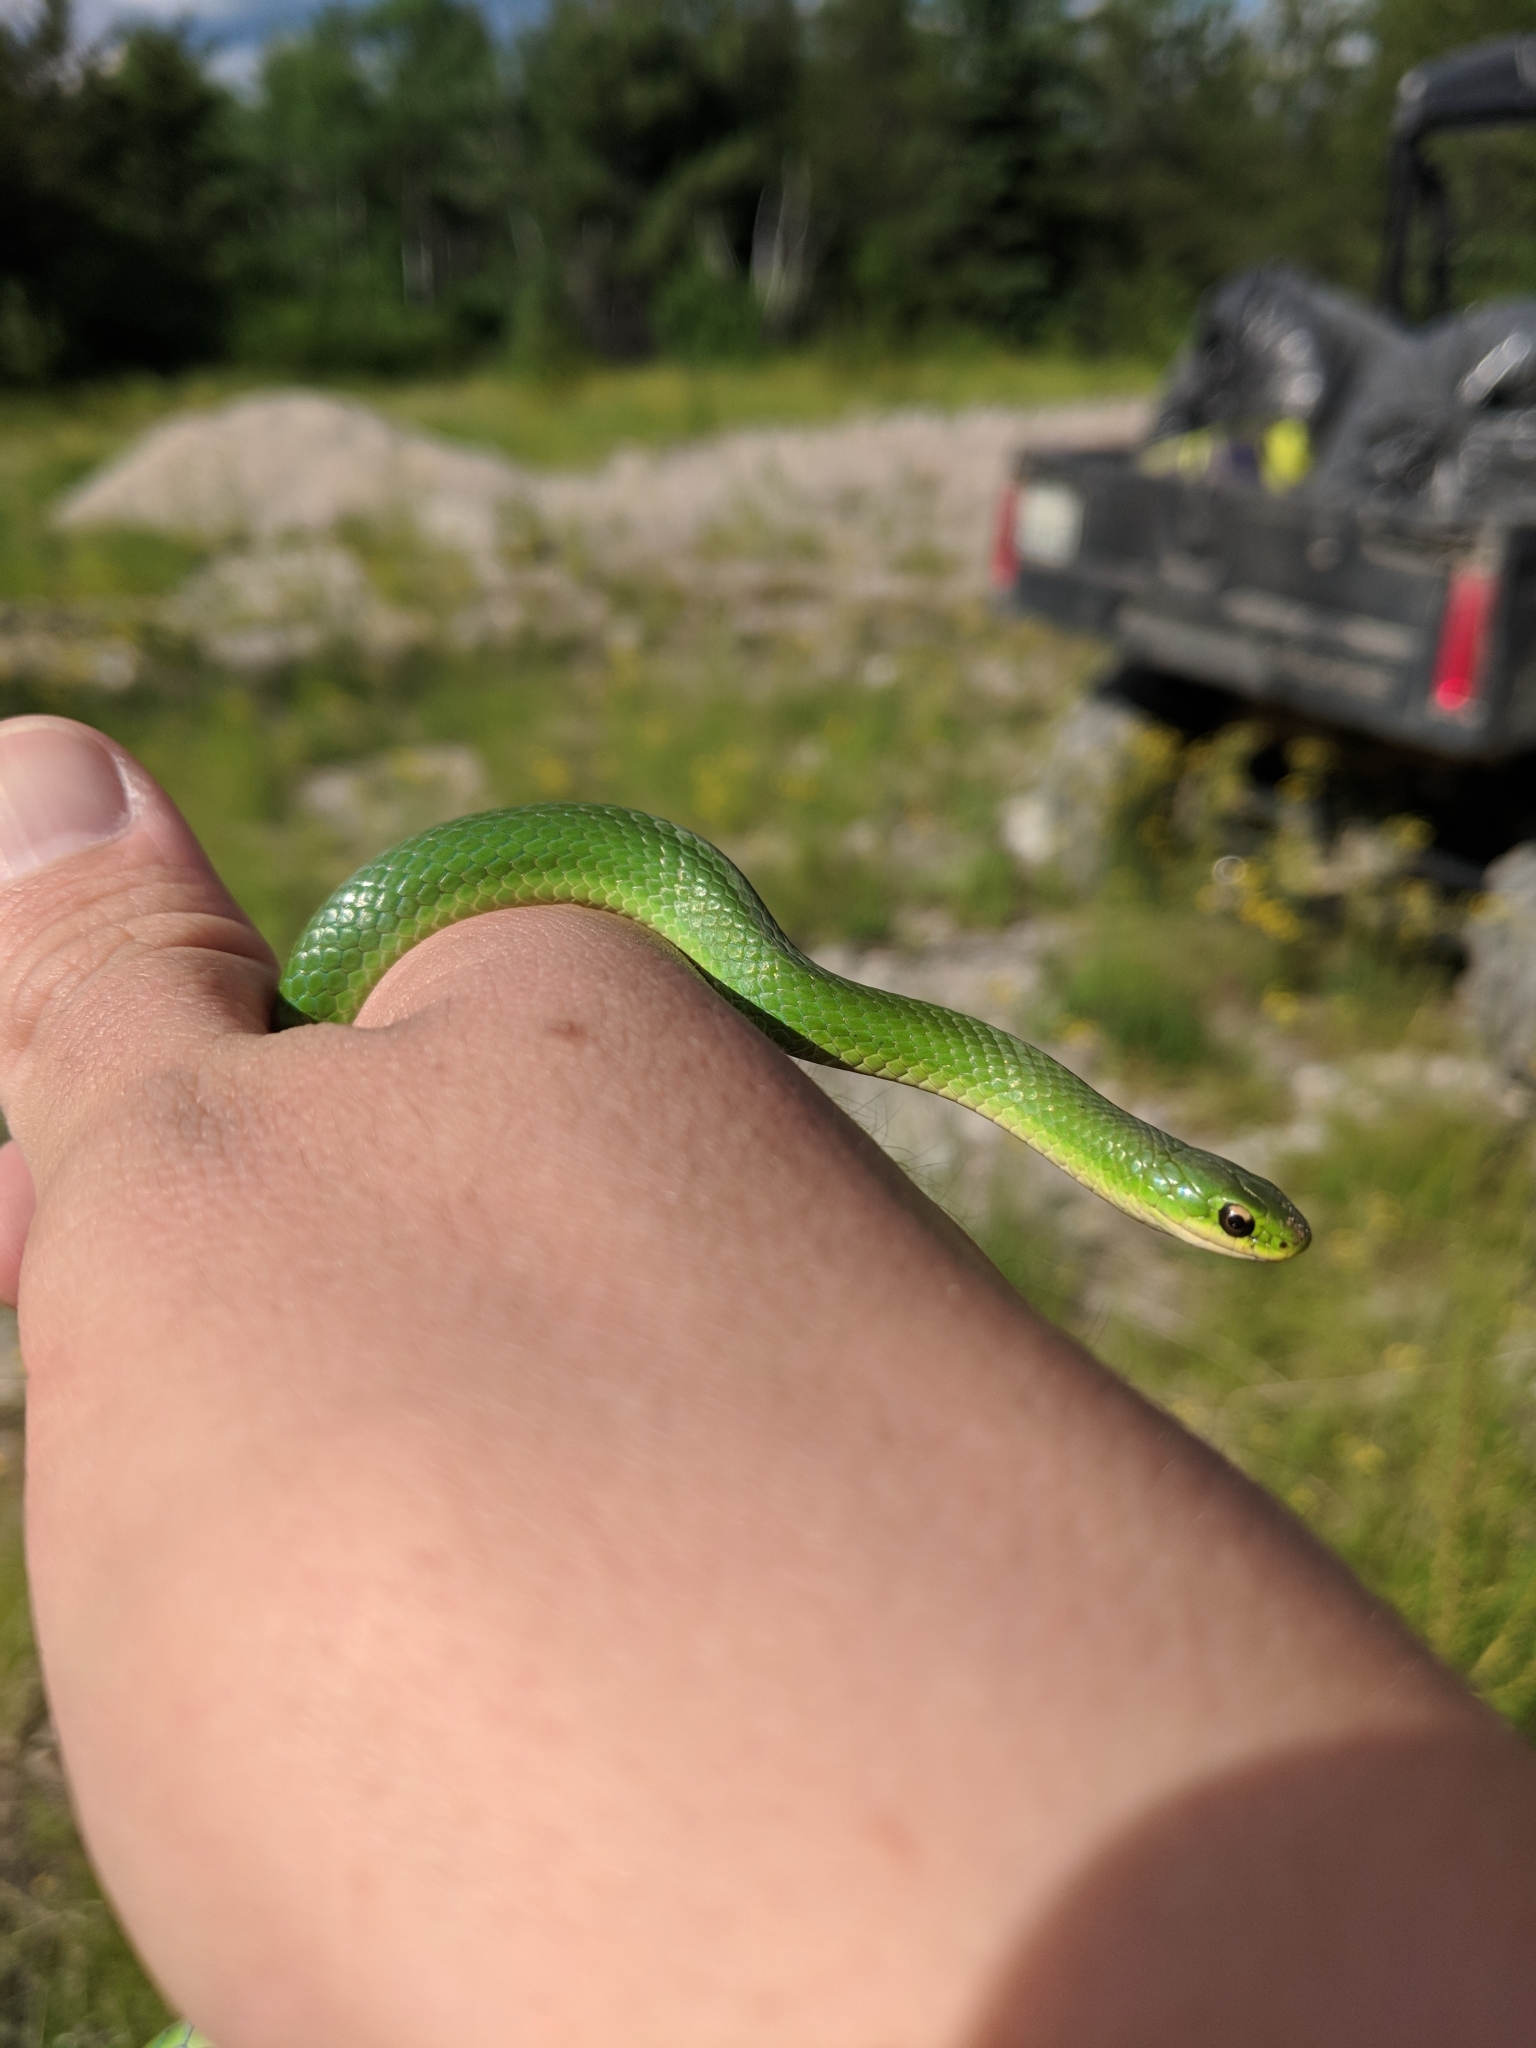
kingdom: Animalia
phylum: Chordata
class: Squamata
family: Colubridae
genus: Opheodrys
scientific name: Opheodrys vernalis
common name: Smooth green snake
